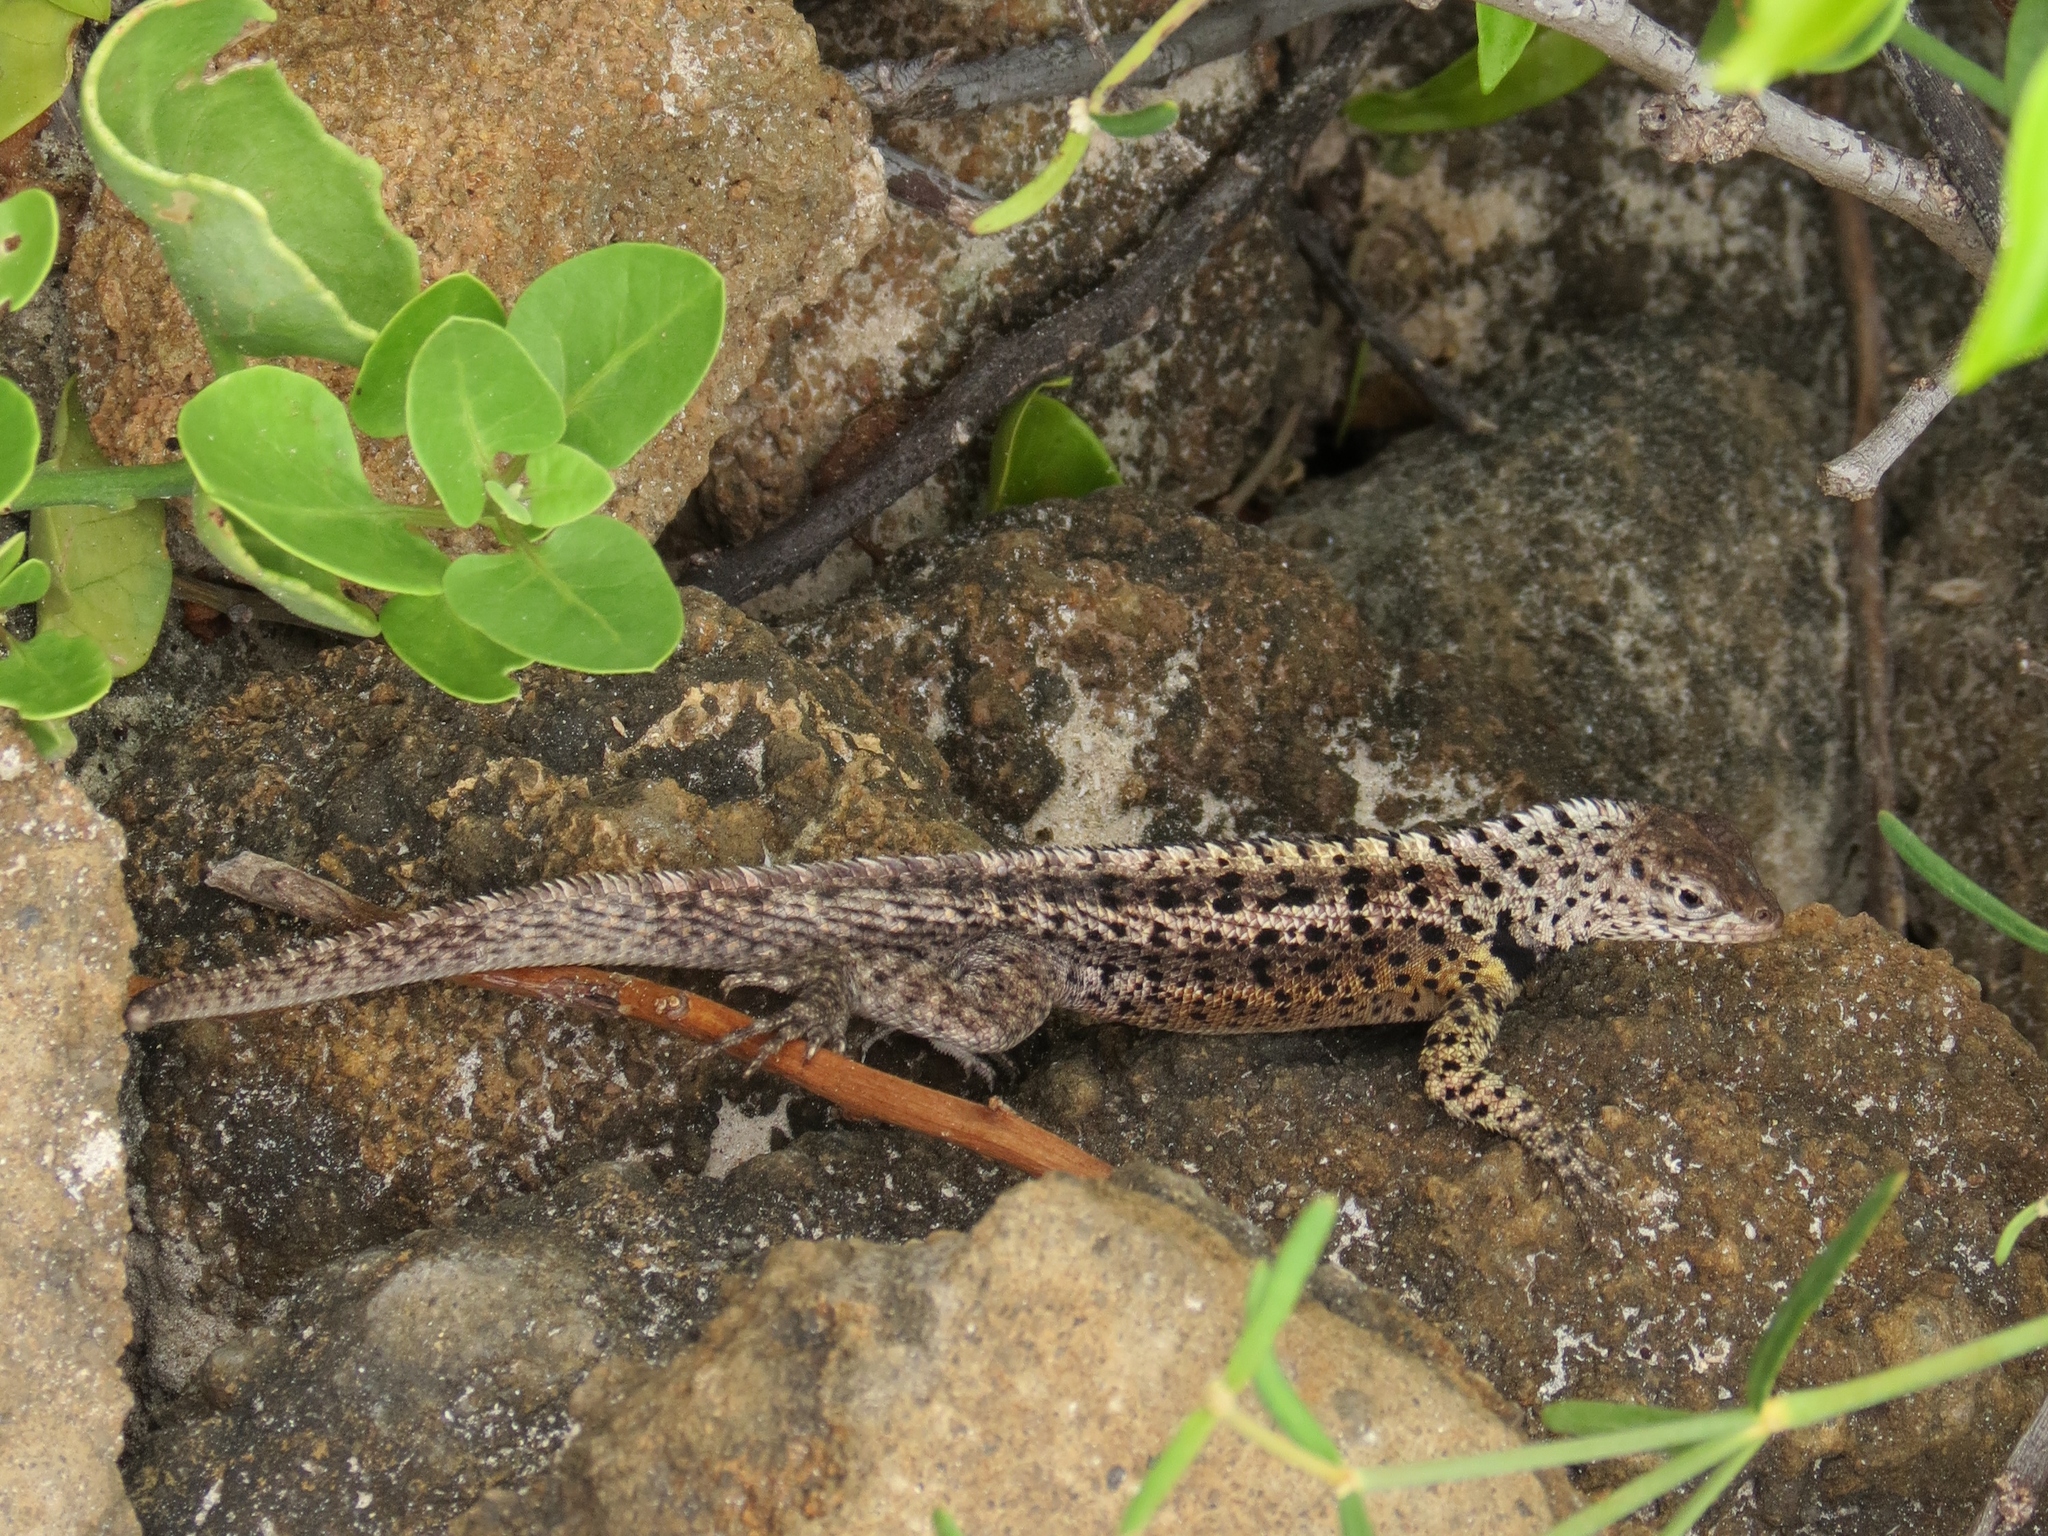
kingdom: Animalia
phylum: Chordata
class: Squamata
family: Tropiduridae
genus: Microlophus
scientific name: Microlophus grayii
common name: Floreana lava lizard
